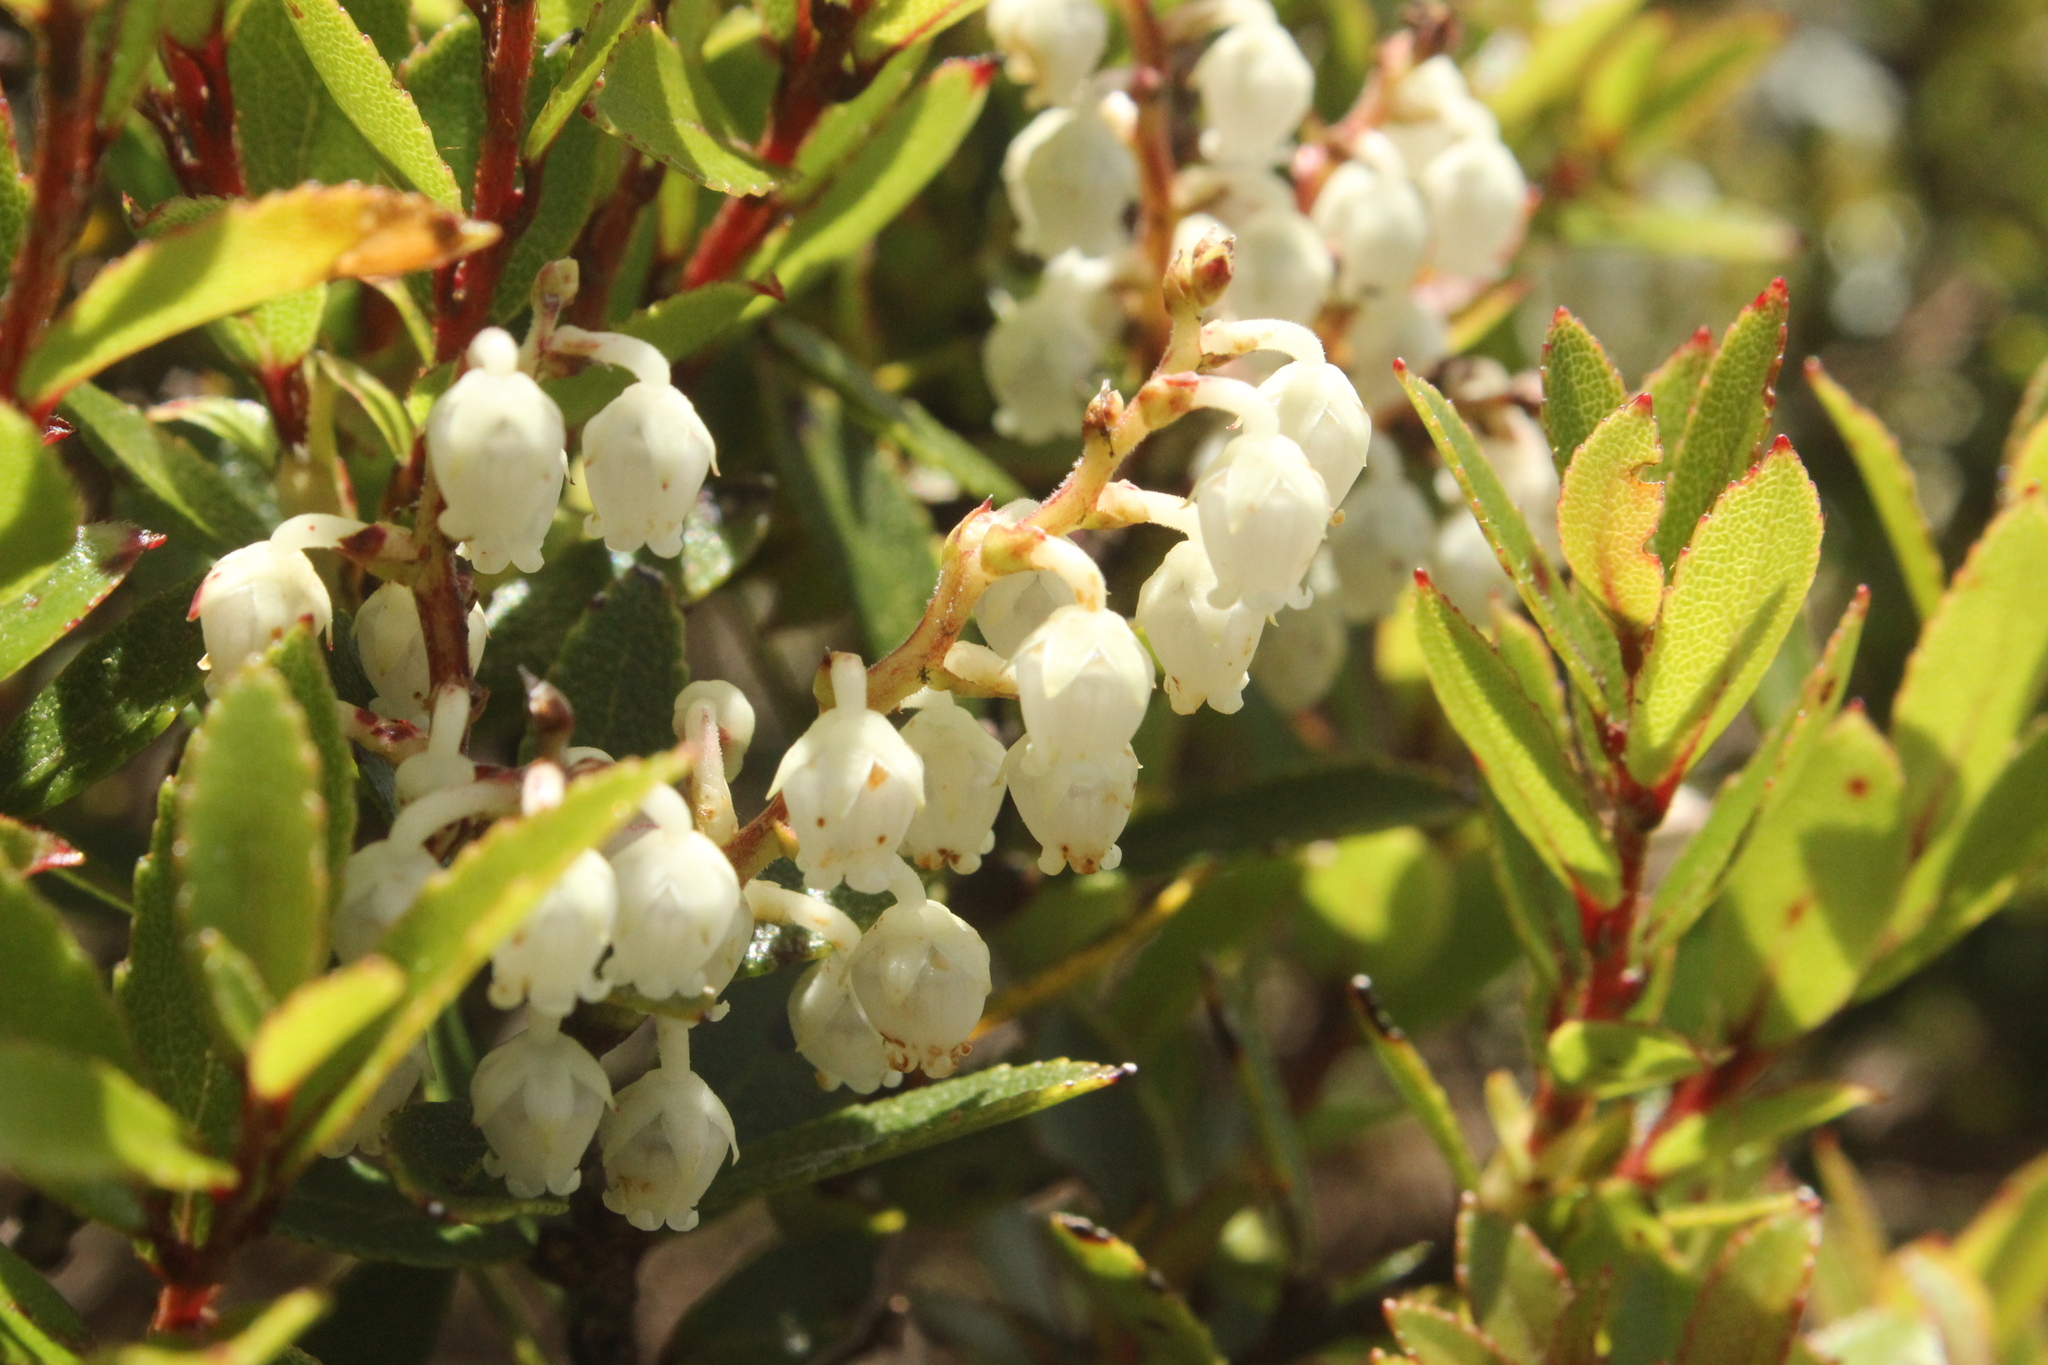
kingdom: Plantae
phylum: Tracheophyta
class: Magnoliopsida
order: Ericales
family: Ericaceae
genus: Gaultheria
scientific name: Gaultheria rupestris
